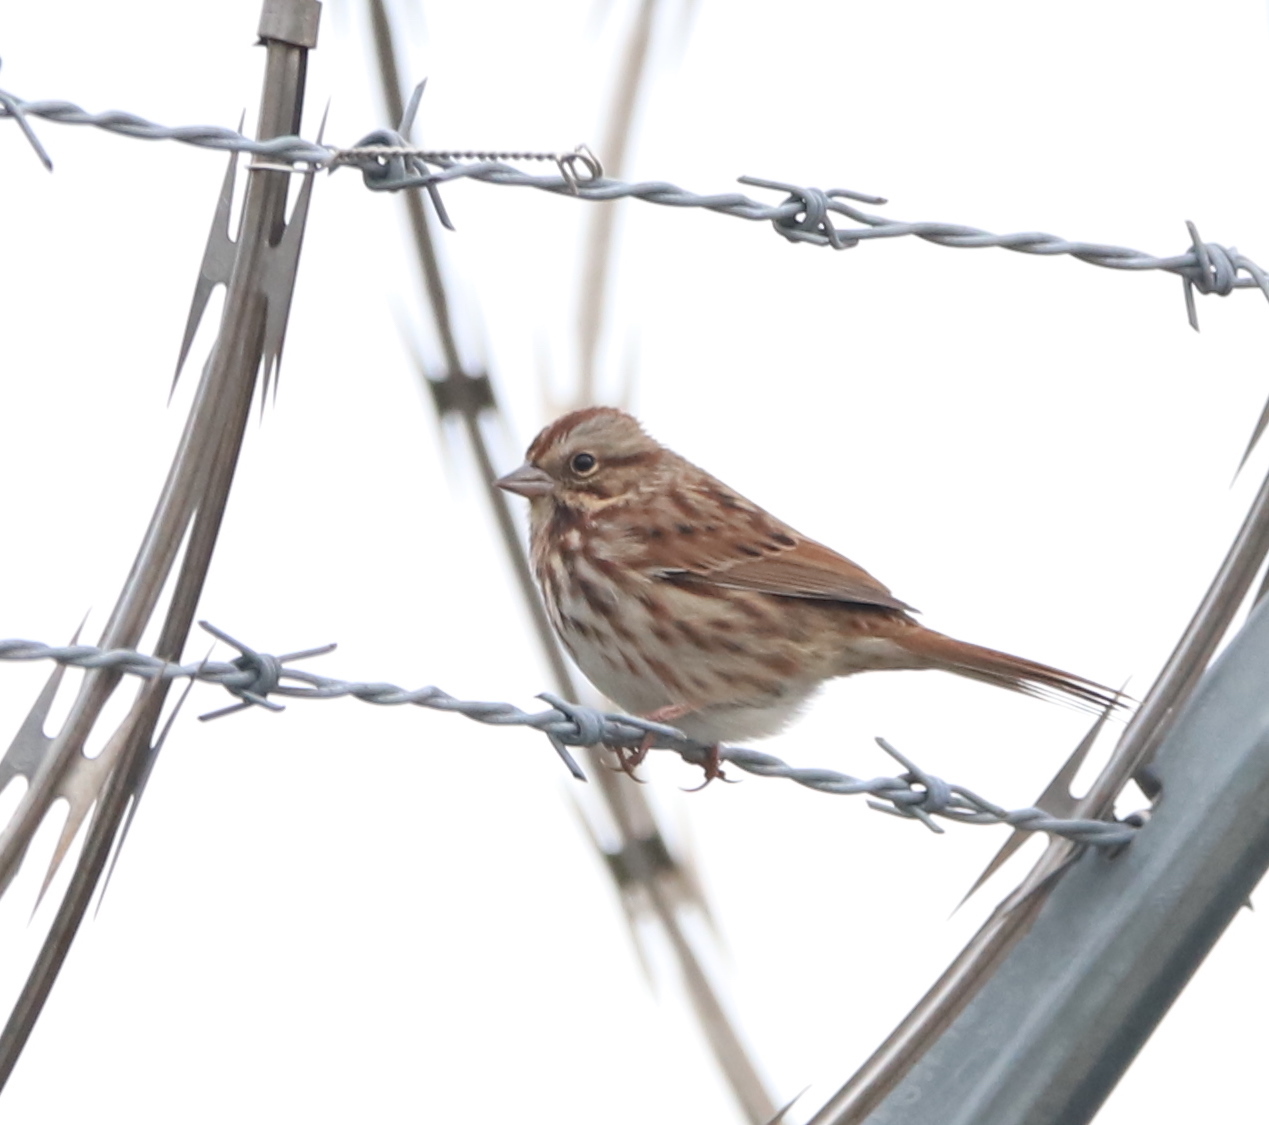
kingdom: Animalia
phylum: Chordata
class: Aves
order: Passeriformes
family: Passerellidae
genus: Melospiza
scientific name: Melospiza melodia
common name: Song sparrow
